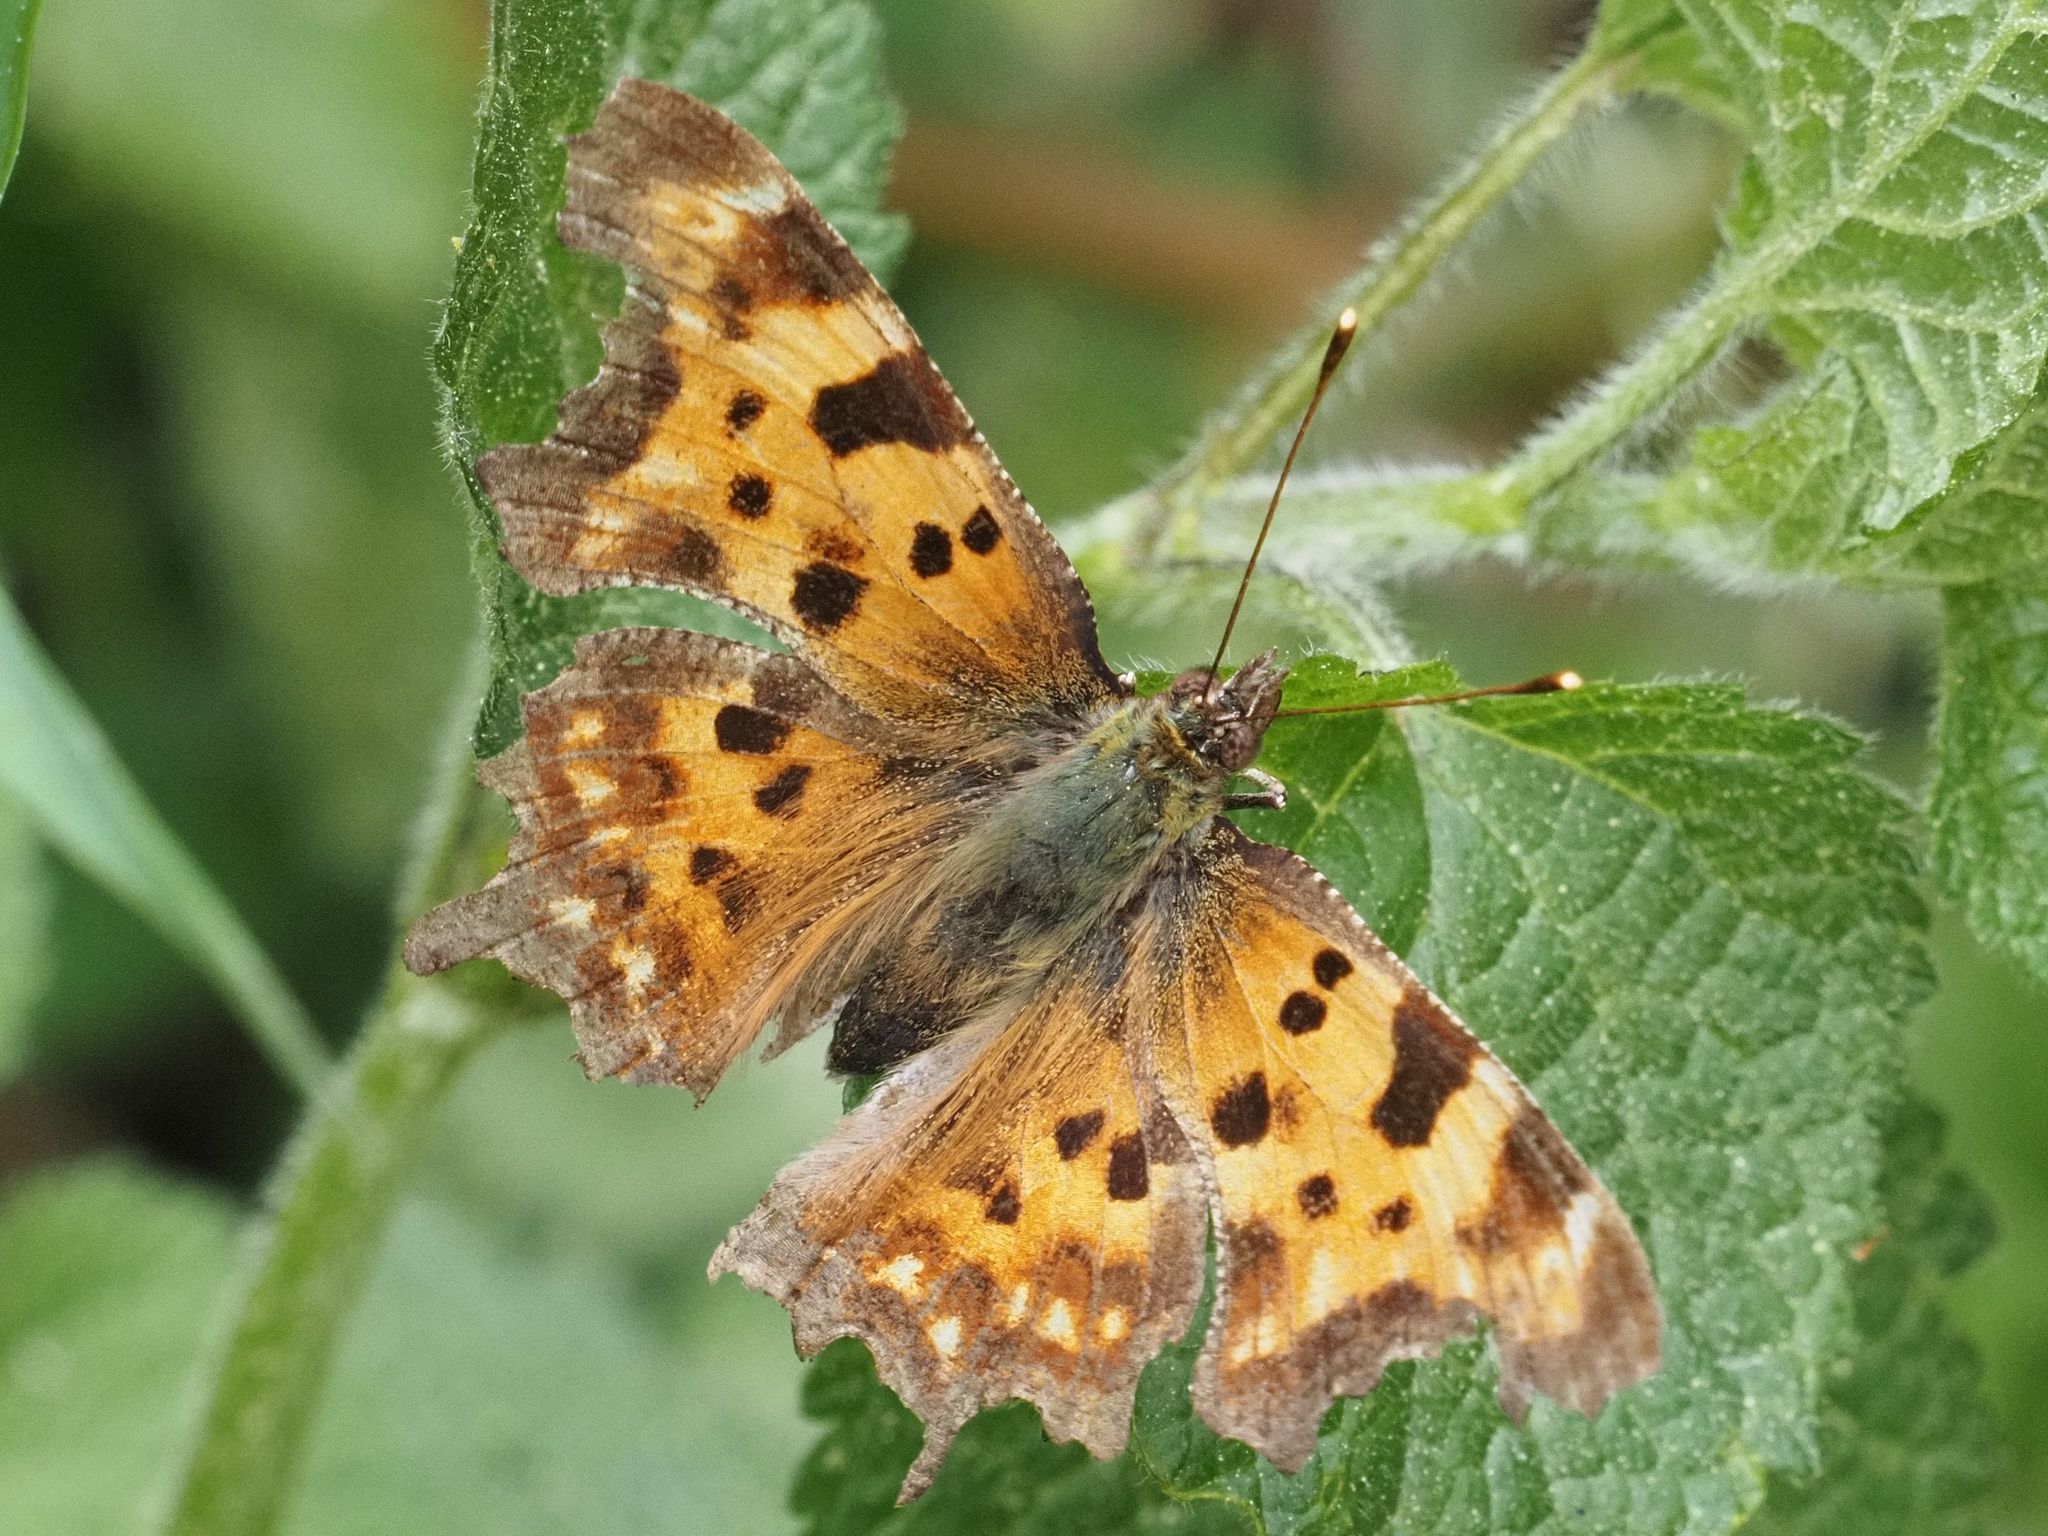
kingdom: Animalia
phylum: Arthropoda
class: Insecta
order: Lepidoptera
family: Nymphalidae
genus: Polygonia
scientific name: Polygonia c-album
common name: Comma
